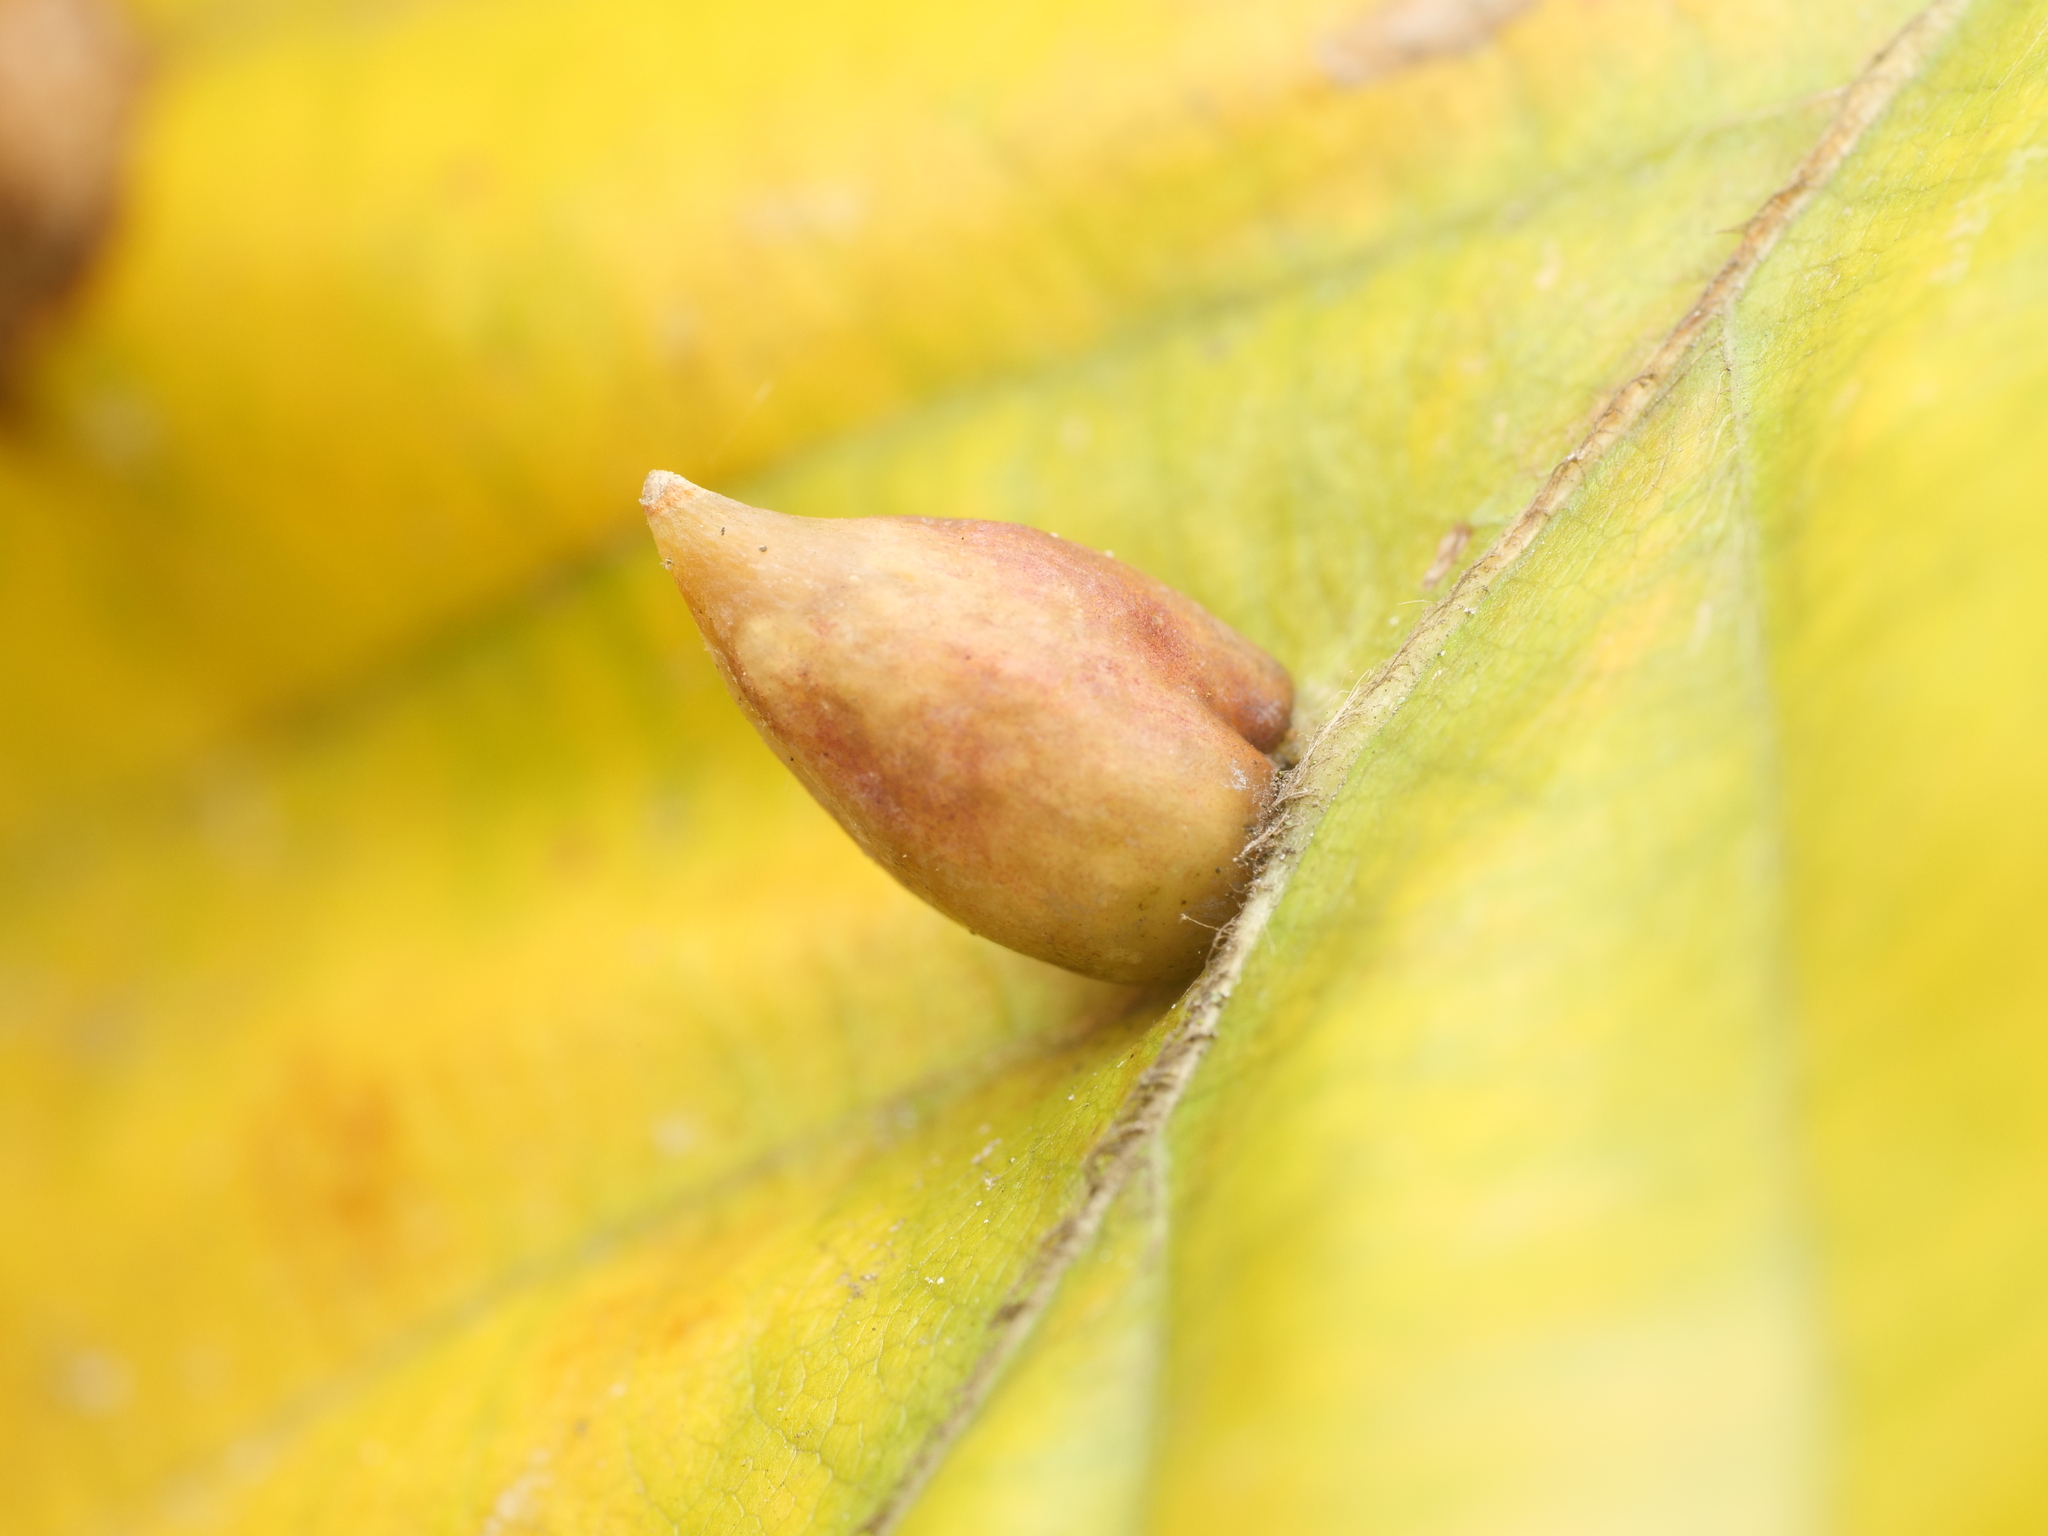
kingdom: Animalia
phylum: Arthropoda
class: Insecta
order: Diptera
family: Cecidomyiidae
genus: Mikiola
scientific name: Mikiola fagi
